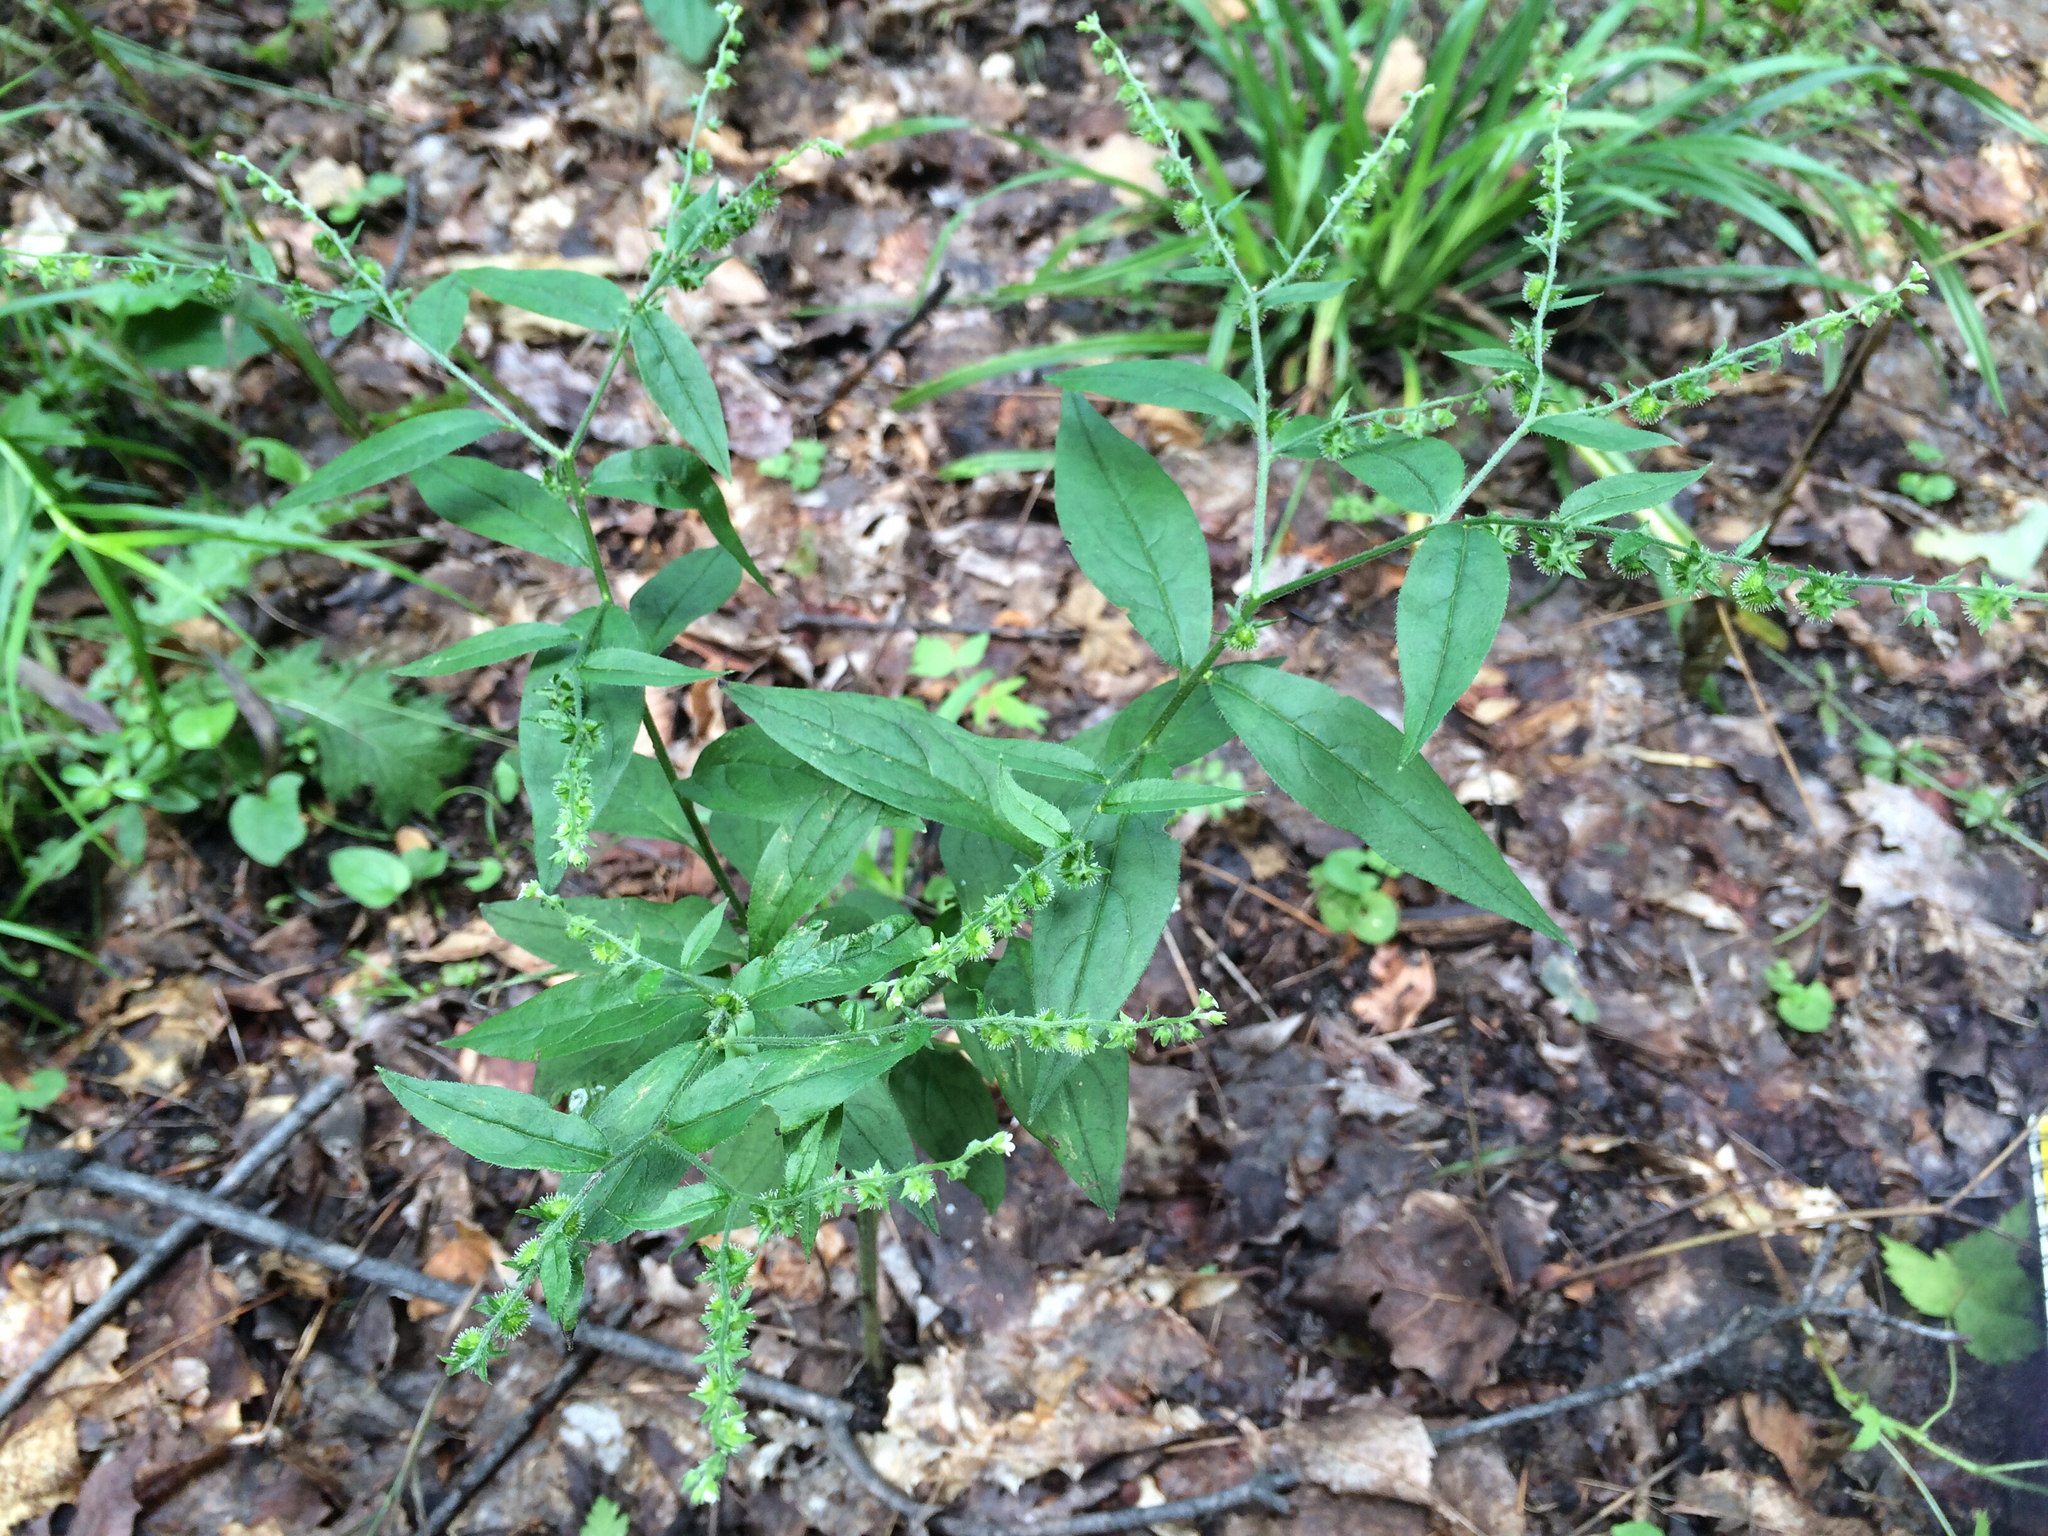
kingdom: Plantae
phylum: Tracheophyta
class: Magnoliopsida
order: Boraginales
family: Boraginaceae
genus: Hackelia
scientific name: Hackelia virginiana
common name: Beggar's-lice
